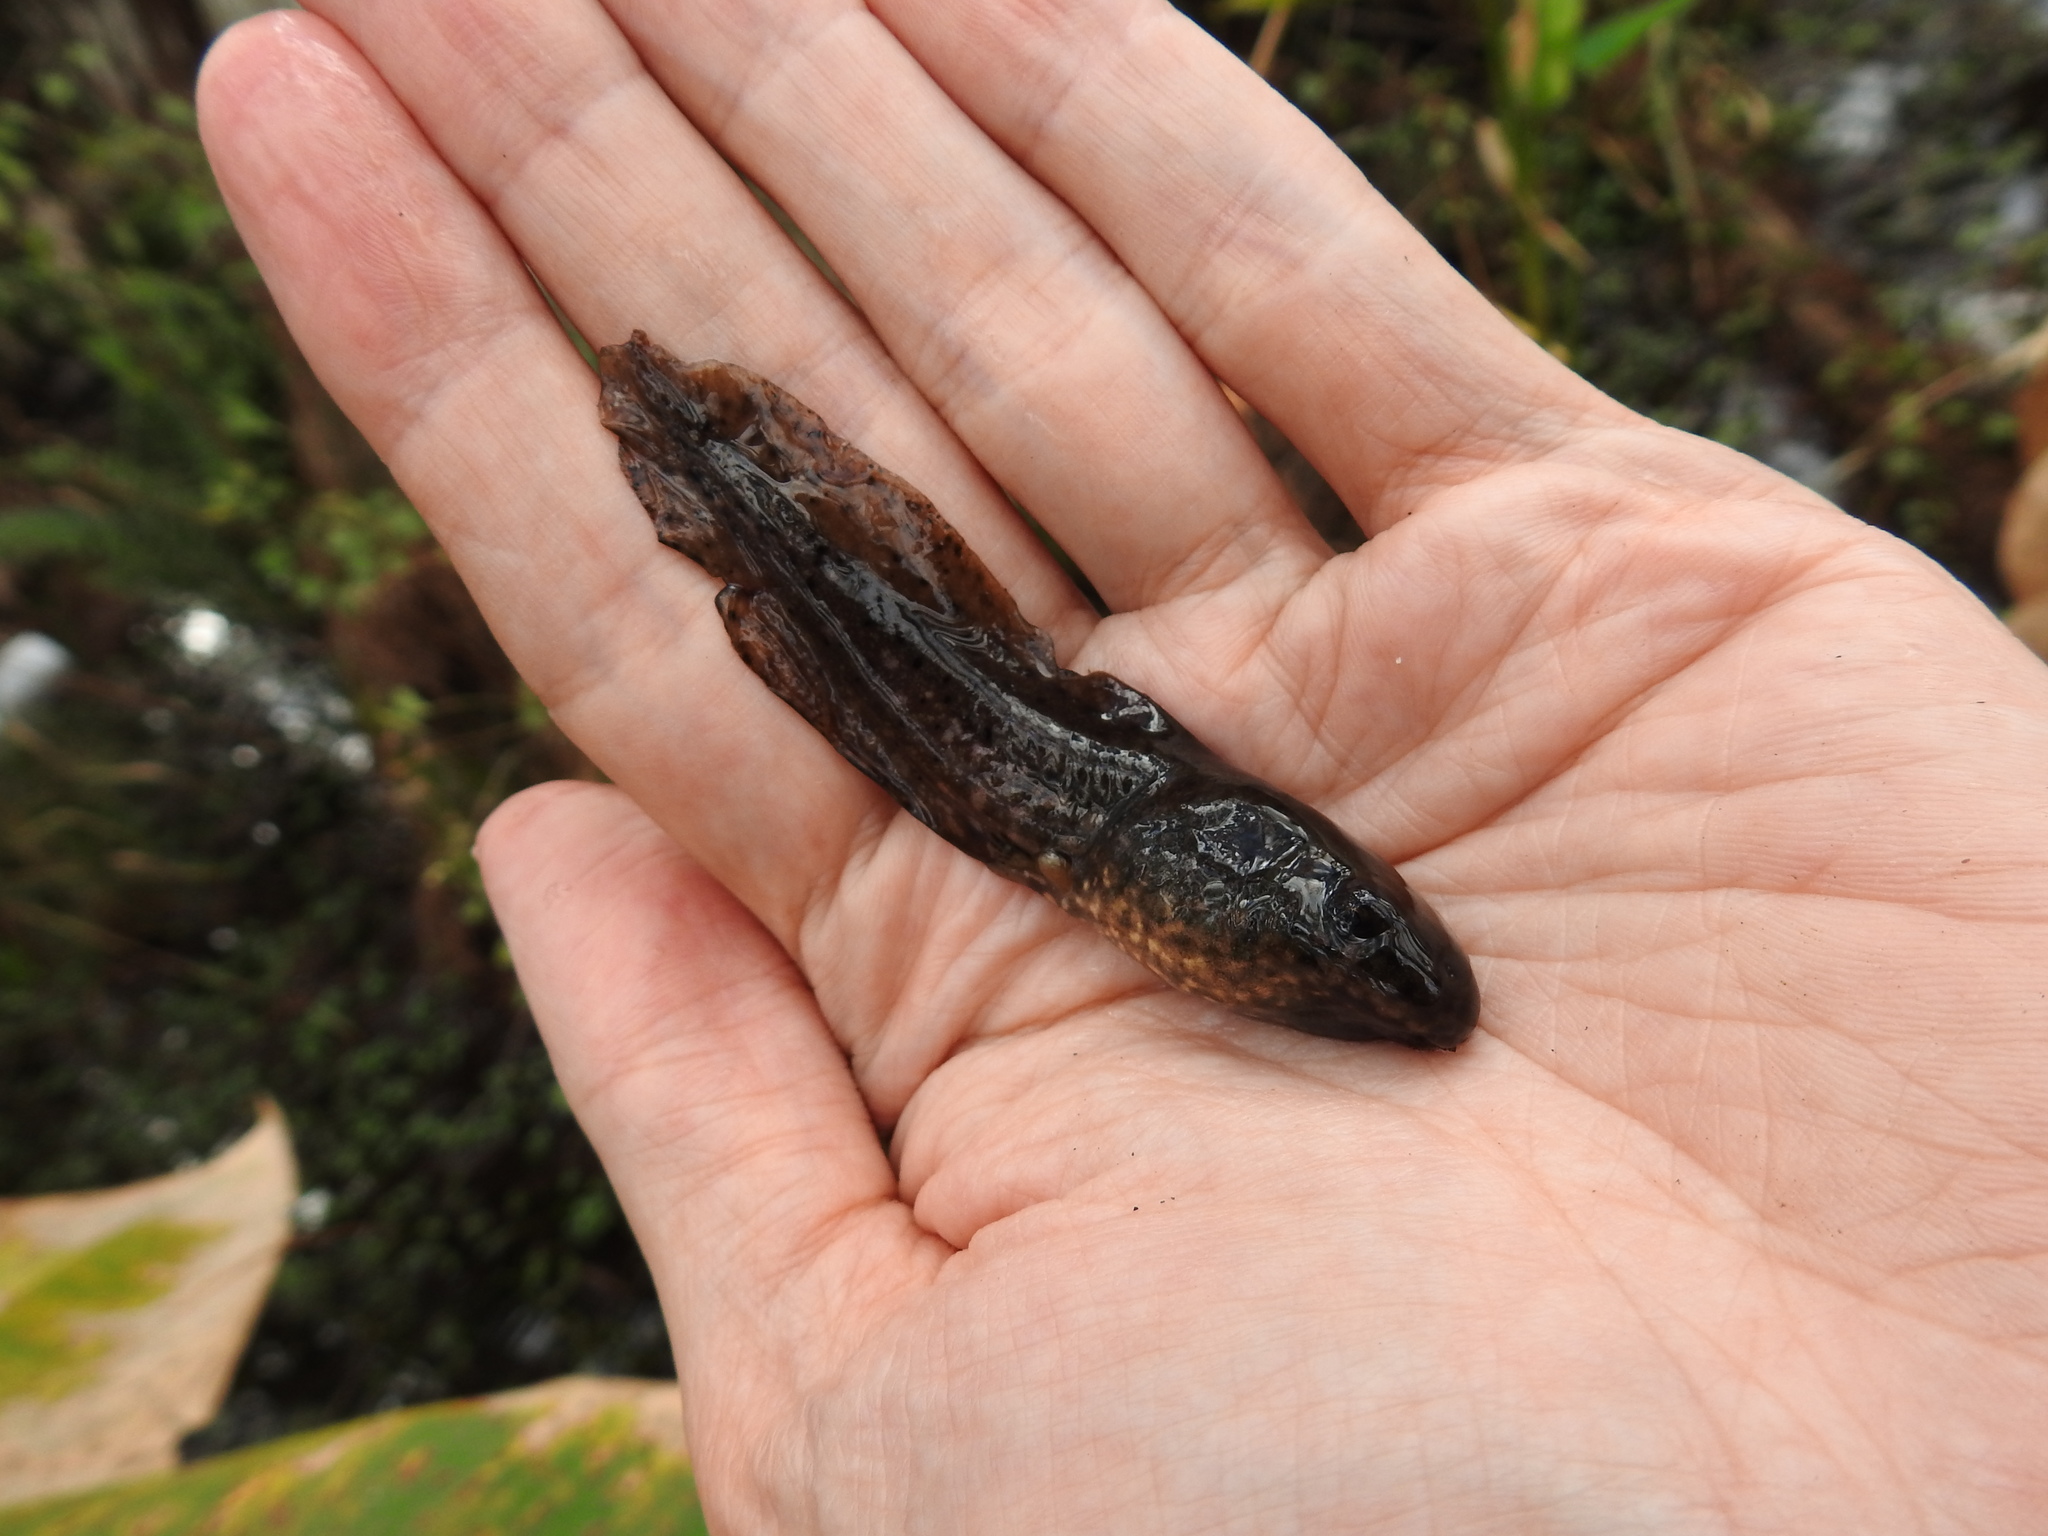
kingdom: Animalia
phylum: Chordata
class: Amphibia
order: Anura
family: Ranidae
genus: Lithobates
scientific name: Lithobates grylio
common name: Pig frog
